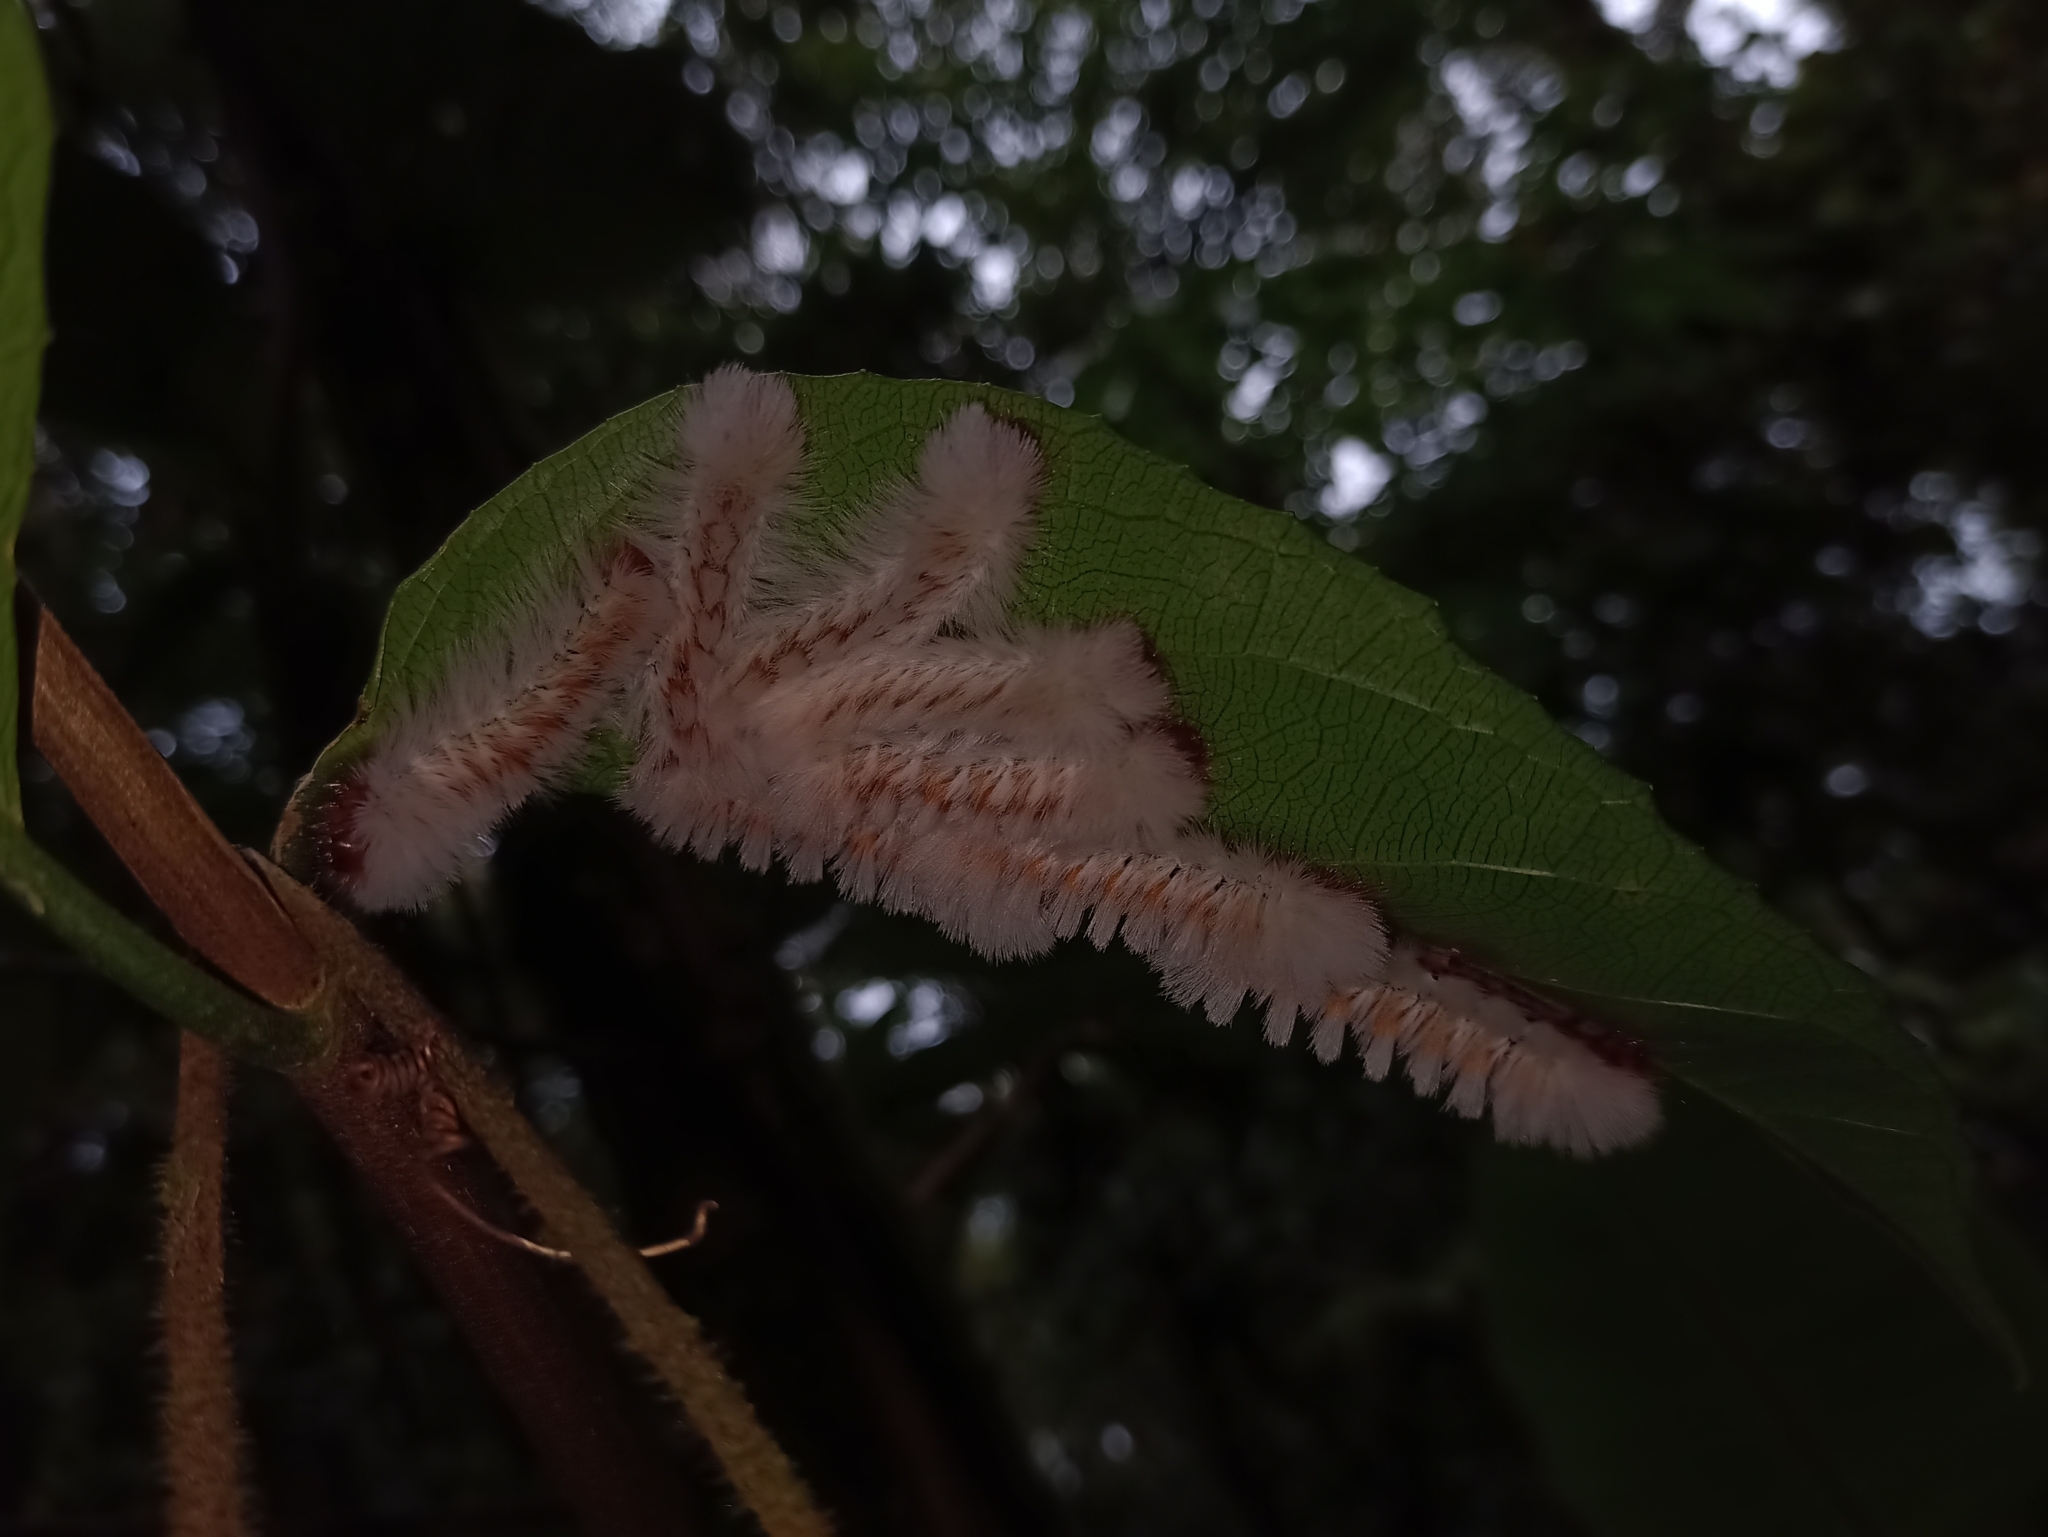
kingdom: Animalia
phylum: Arthropoda
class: Insecta
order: Lepidoptera
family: Eupterotidae
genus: Neopreptos
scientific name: Neopreptos marathusa
